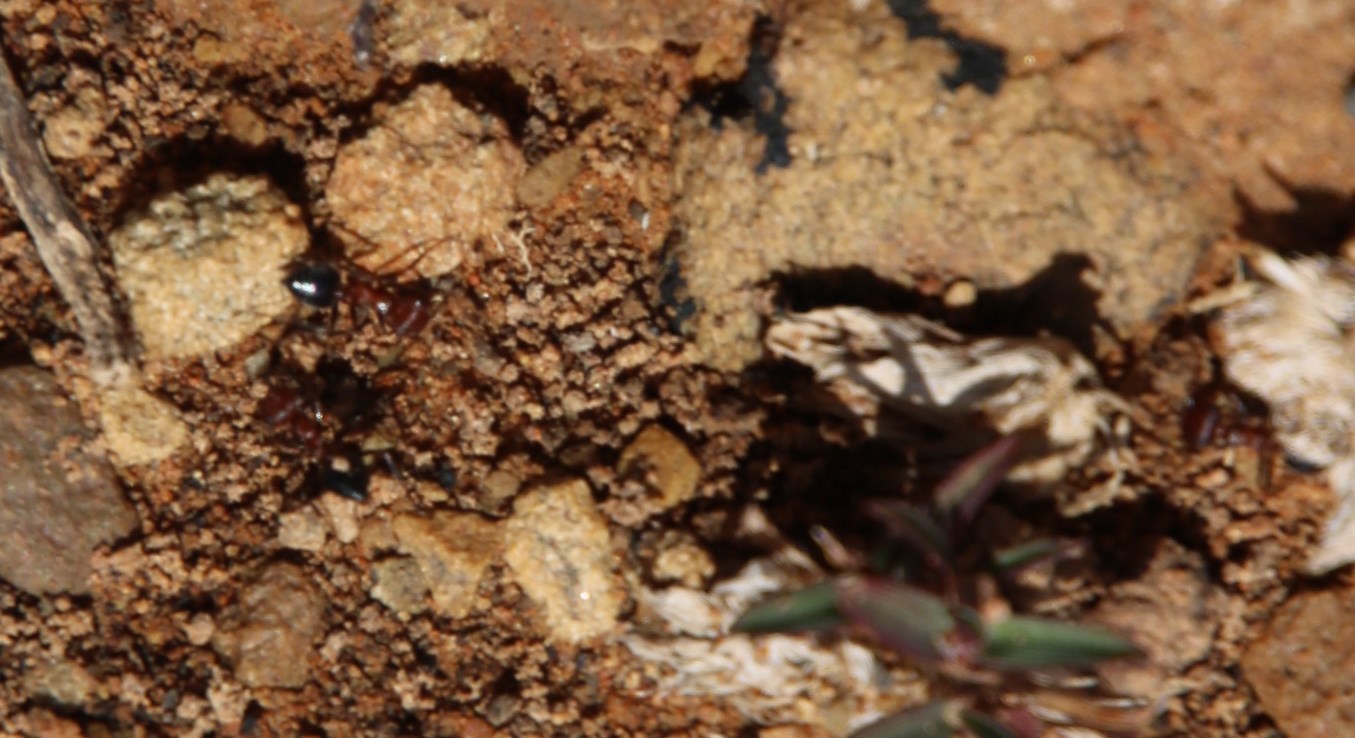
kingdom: Animalia
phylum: Arthropoda
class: Insecta
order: Hymenoptera
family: Formicidae
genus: Crematogaster
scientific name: Crematogaster melanogaster
